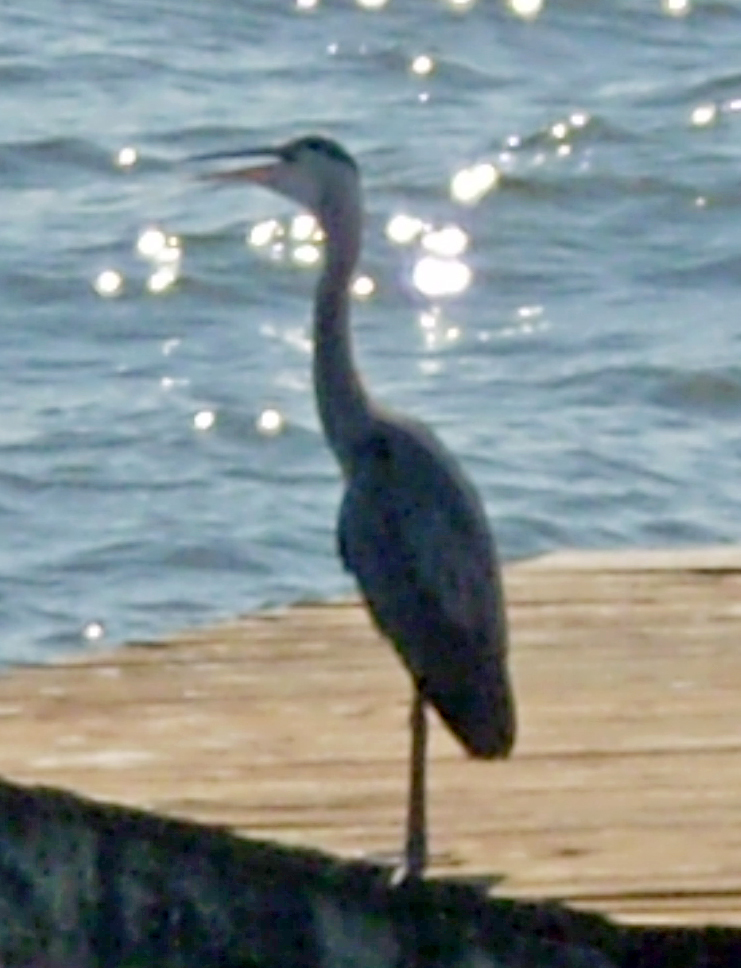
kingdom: Animalia
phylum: Chordata
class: Aves
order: Pelecaniformes
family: Ardeidae
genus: Ardea
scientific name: Ardea herodias
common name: Great blue heron
